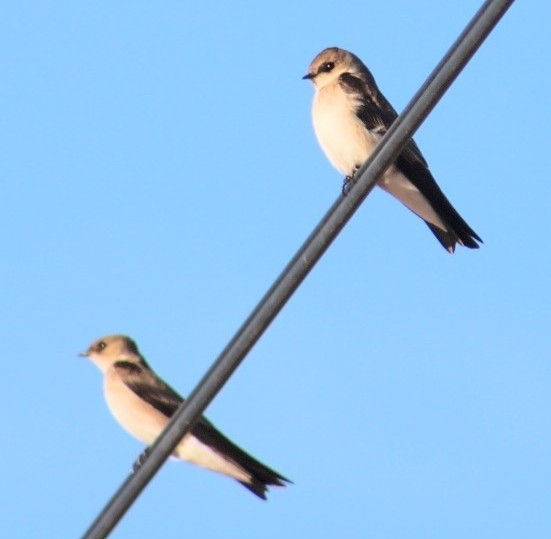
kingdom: Animalia
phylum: Chordata
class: Aves
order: Passeriformes
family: Hirundinidae
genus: Stelgidopteryx
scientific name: Stelgidopteryx serripennis
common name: Northern rough-winged swallow
